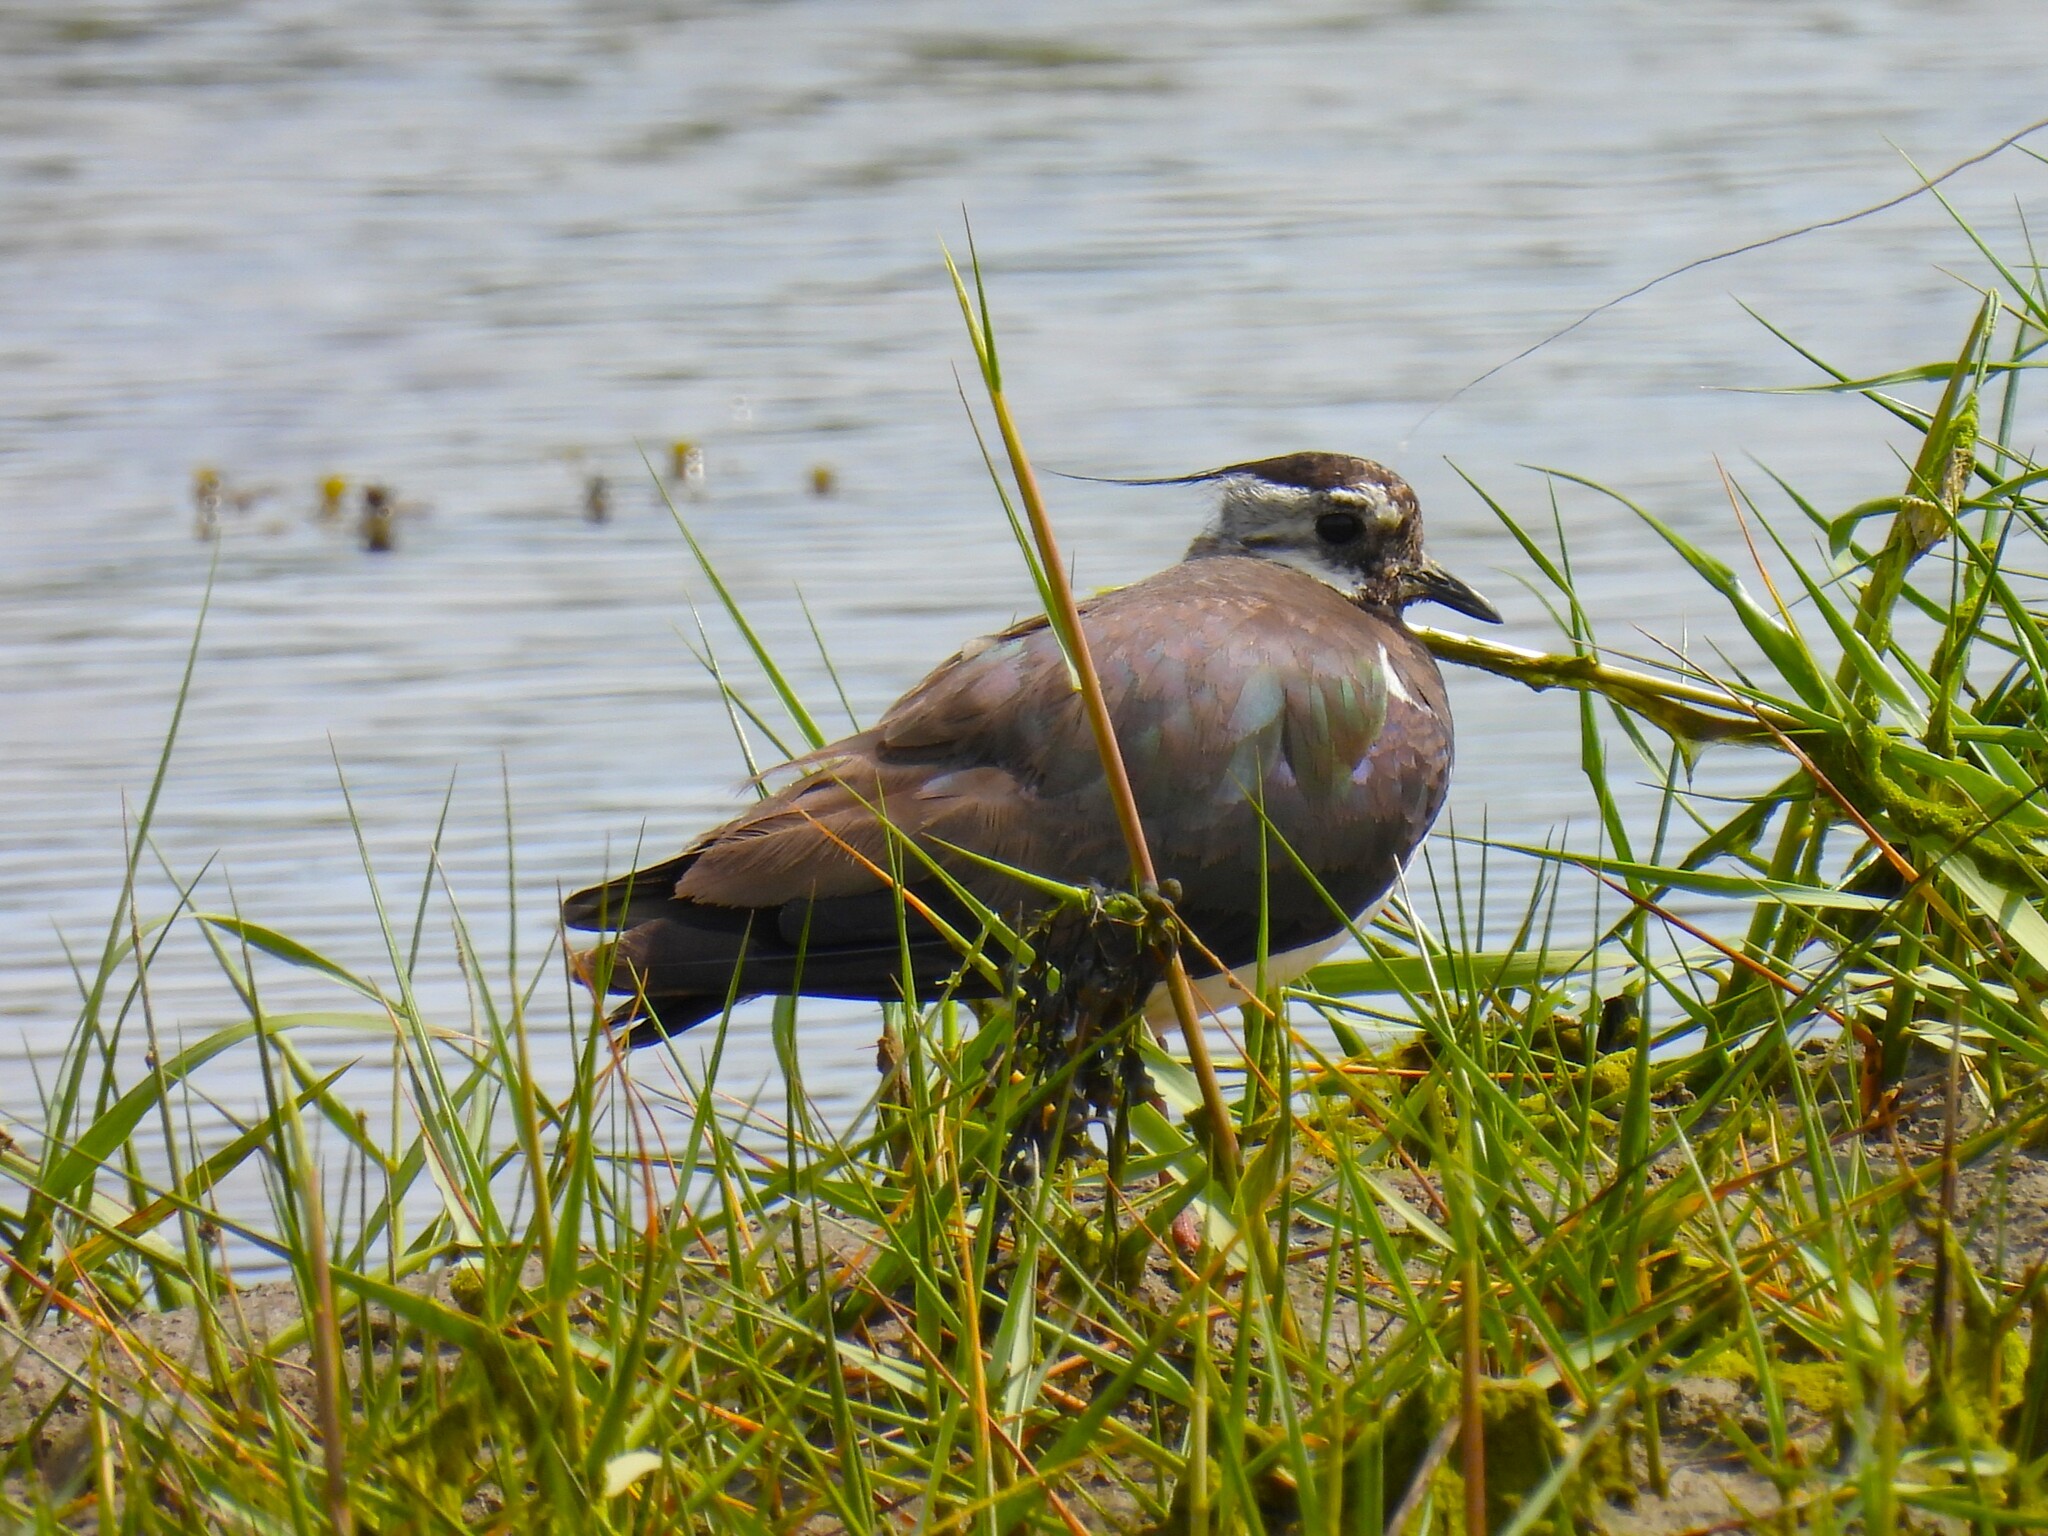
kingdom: Animalia
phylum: Chordata
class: Aves
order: Charadriiformes
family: Charadriidae
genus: Vanellus
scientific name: Vanellus vanellus
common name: Northern lapwing
